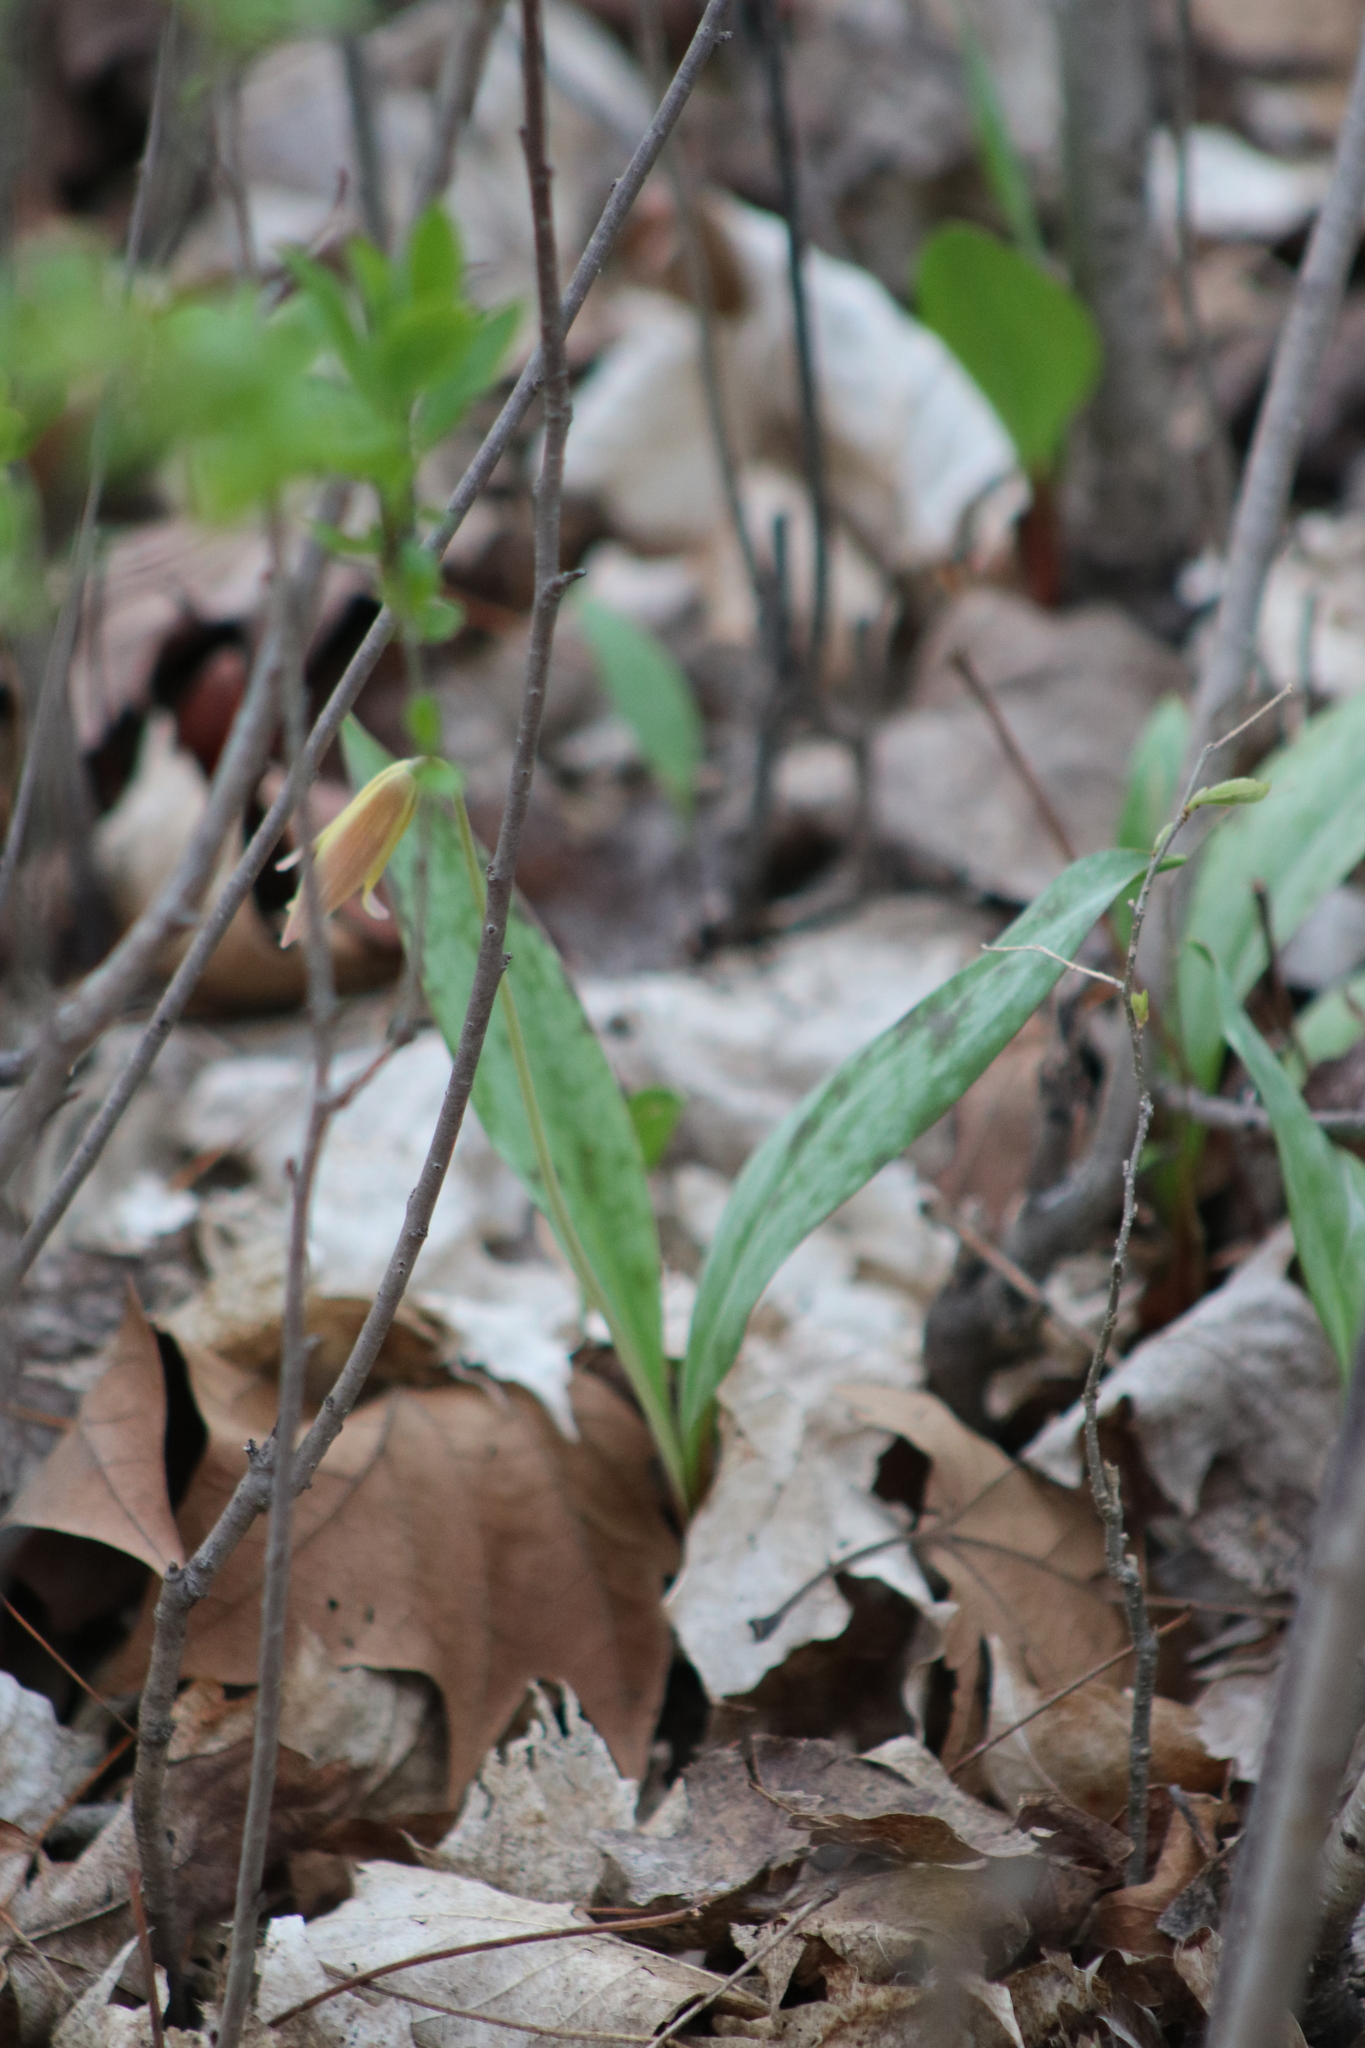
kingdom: Plantae
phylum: Tracheophyta
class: Liliopsida
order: Liliales
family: Liliaceae
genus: Erythronium
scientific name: Erythronium americanum
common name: Yellow adder's-tongue
